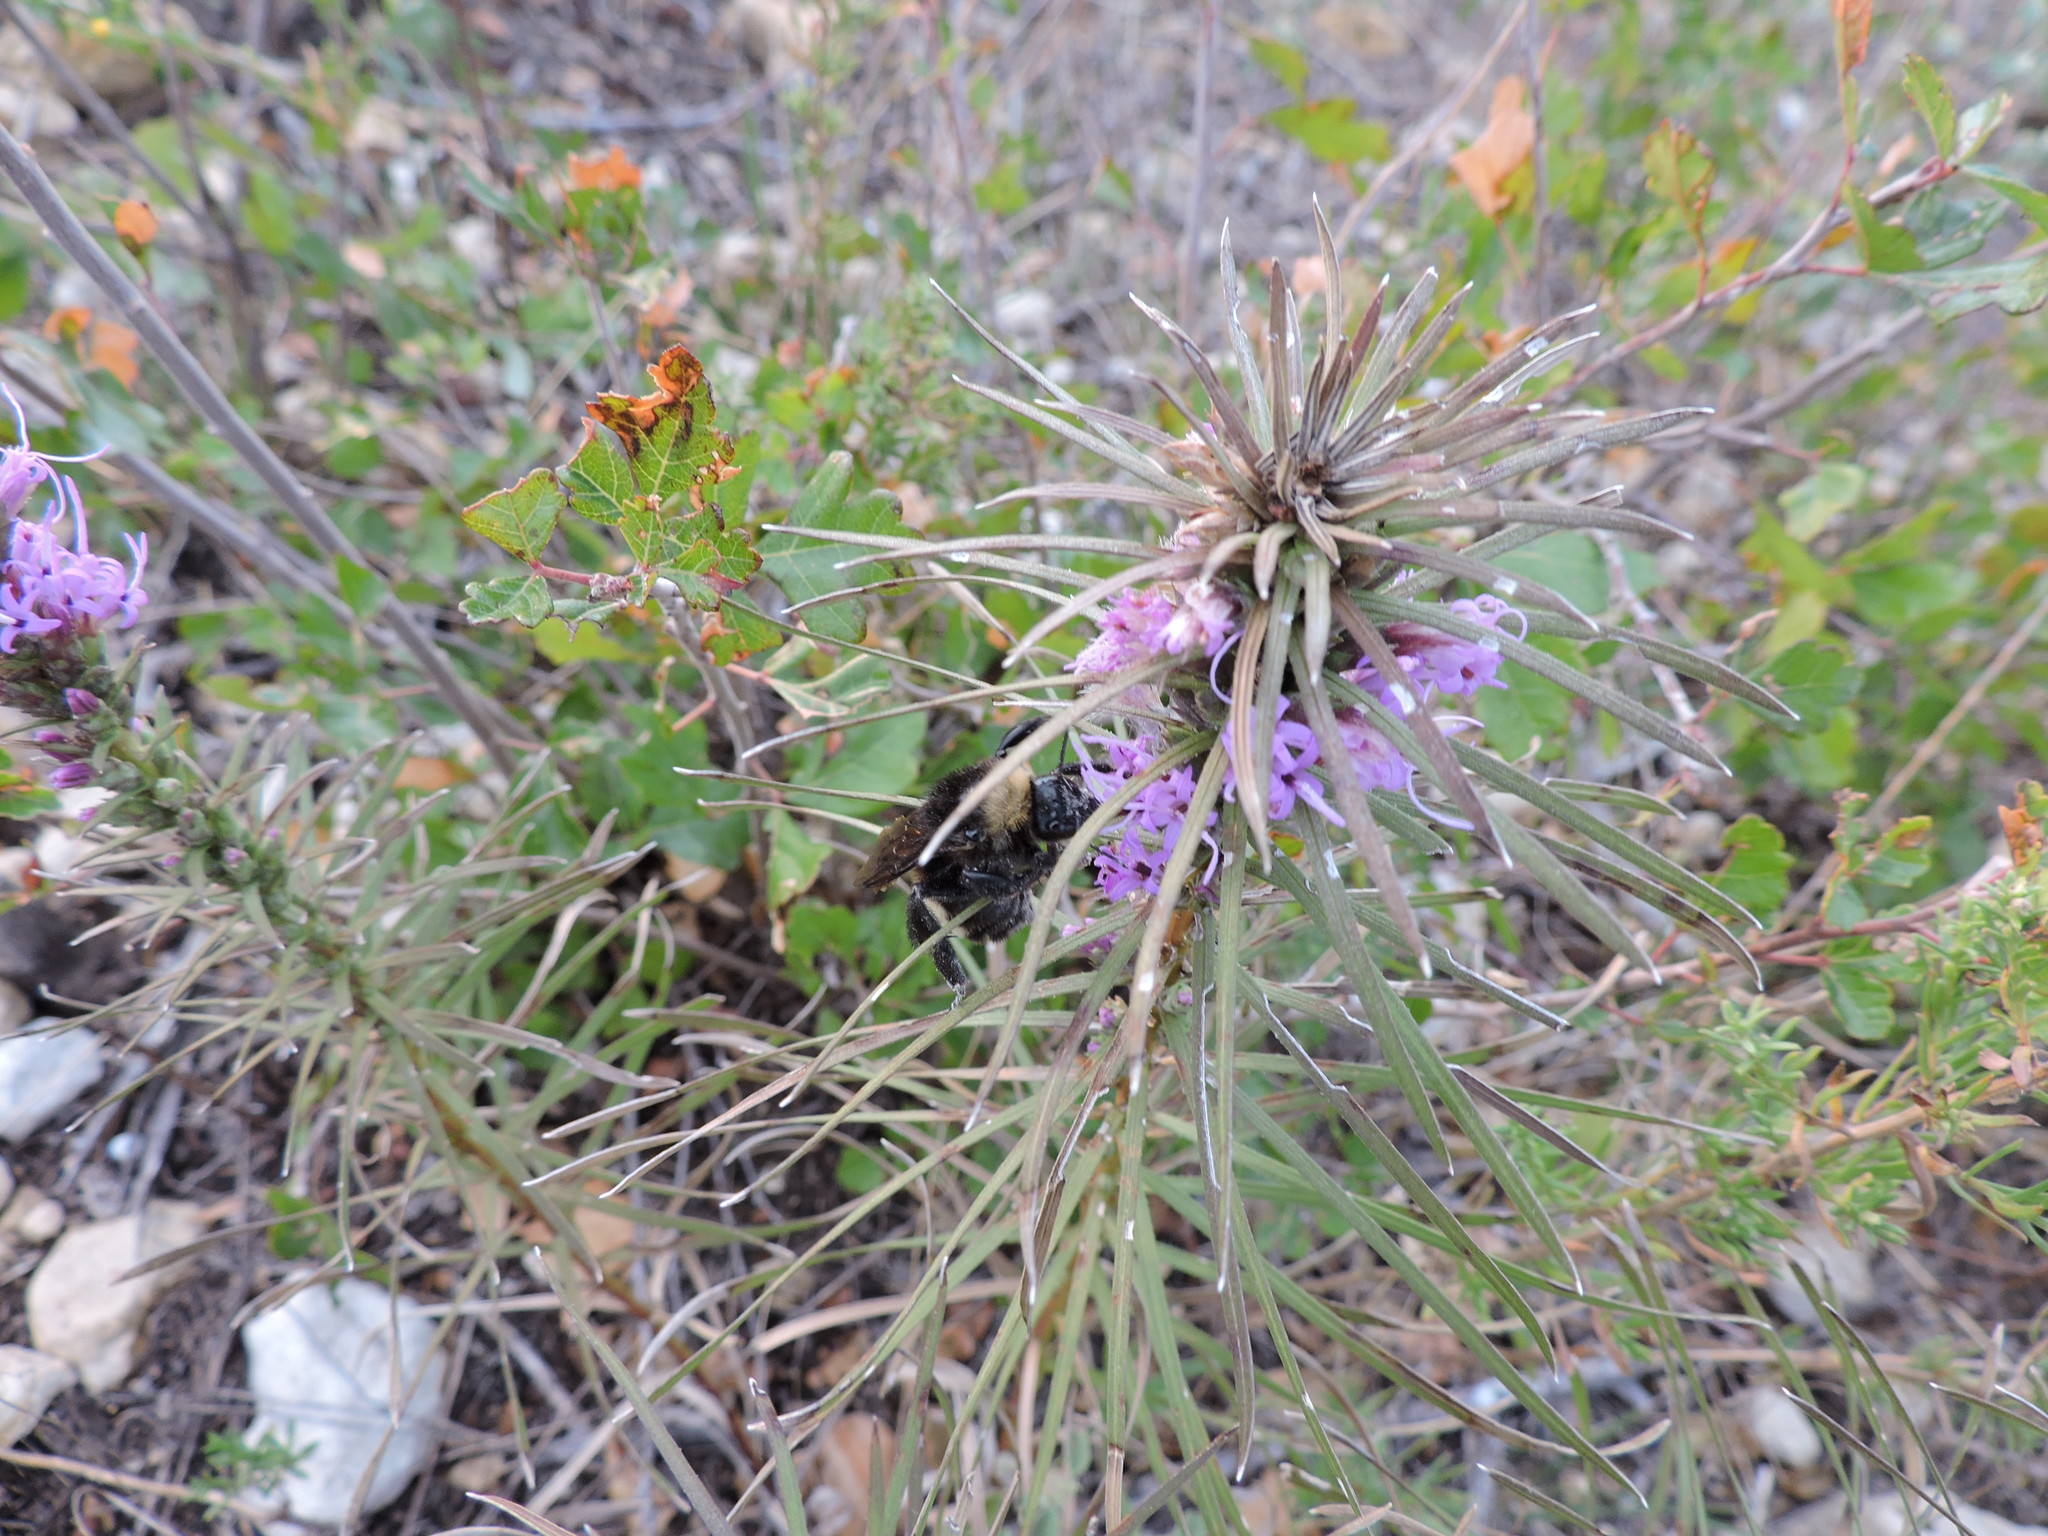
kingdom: Animalia
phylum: Arthropoda
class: Insecta
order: Hymenoptera
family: Apidae
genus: Bombus
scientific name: Bombus pensylvanicus
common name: Bumble bee
